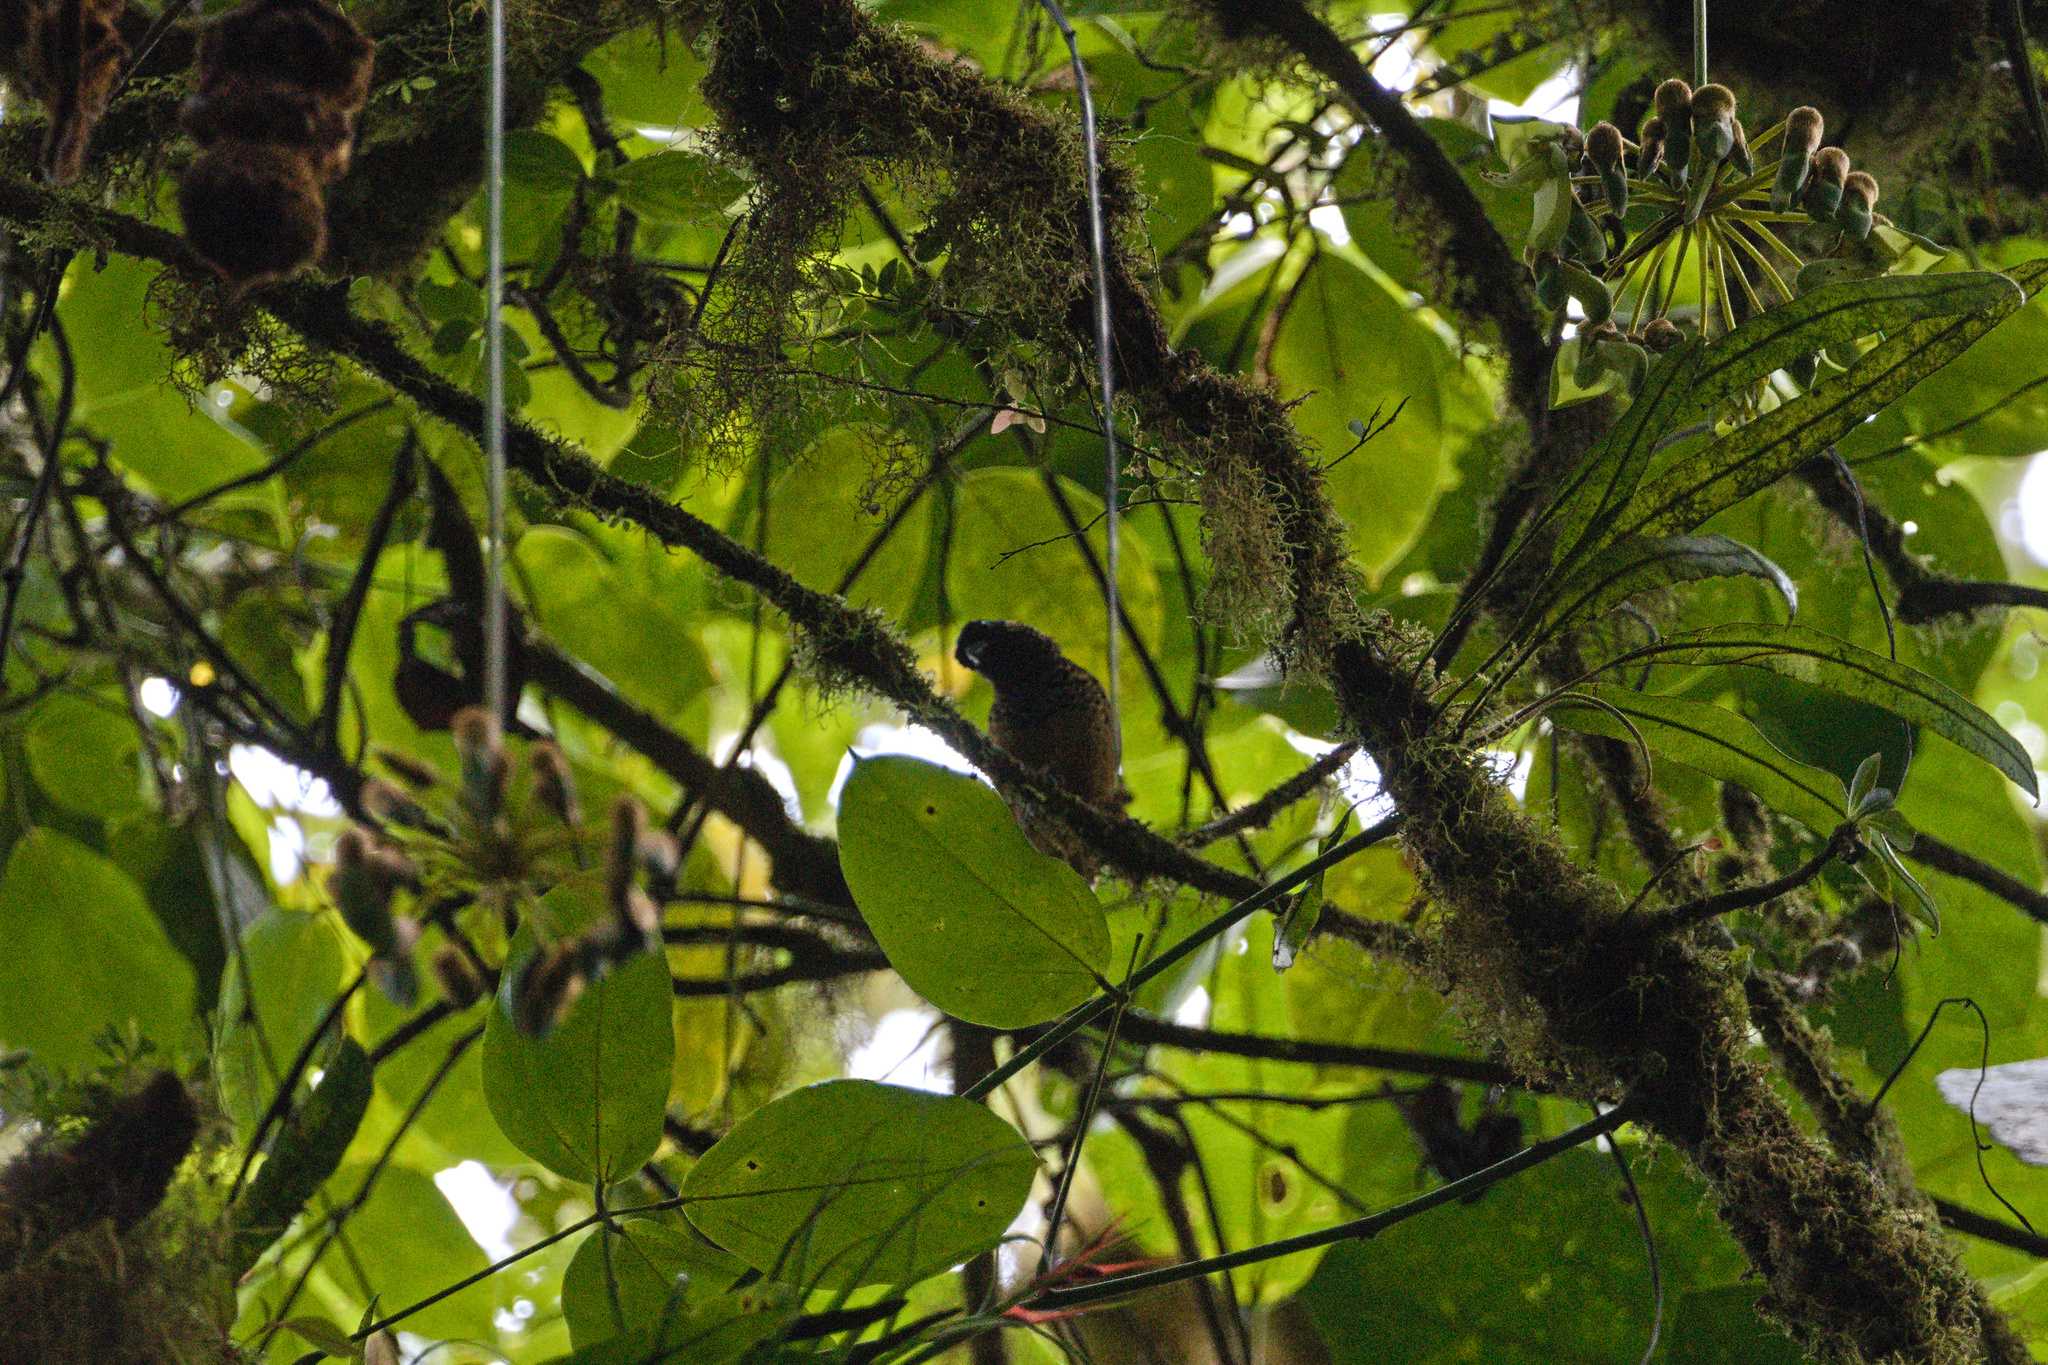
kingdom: Animalia
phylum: Chordata
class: Aves
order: Passeriformes
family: Thraupidae
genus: Tangara
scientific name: Tangara dowii
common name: Spangle-cheeked tanager
